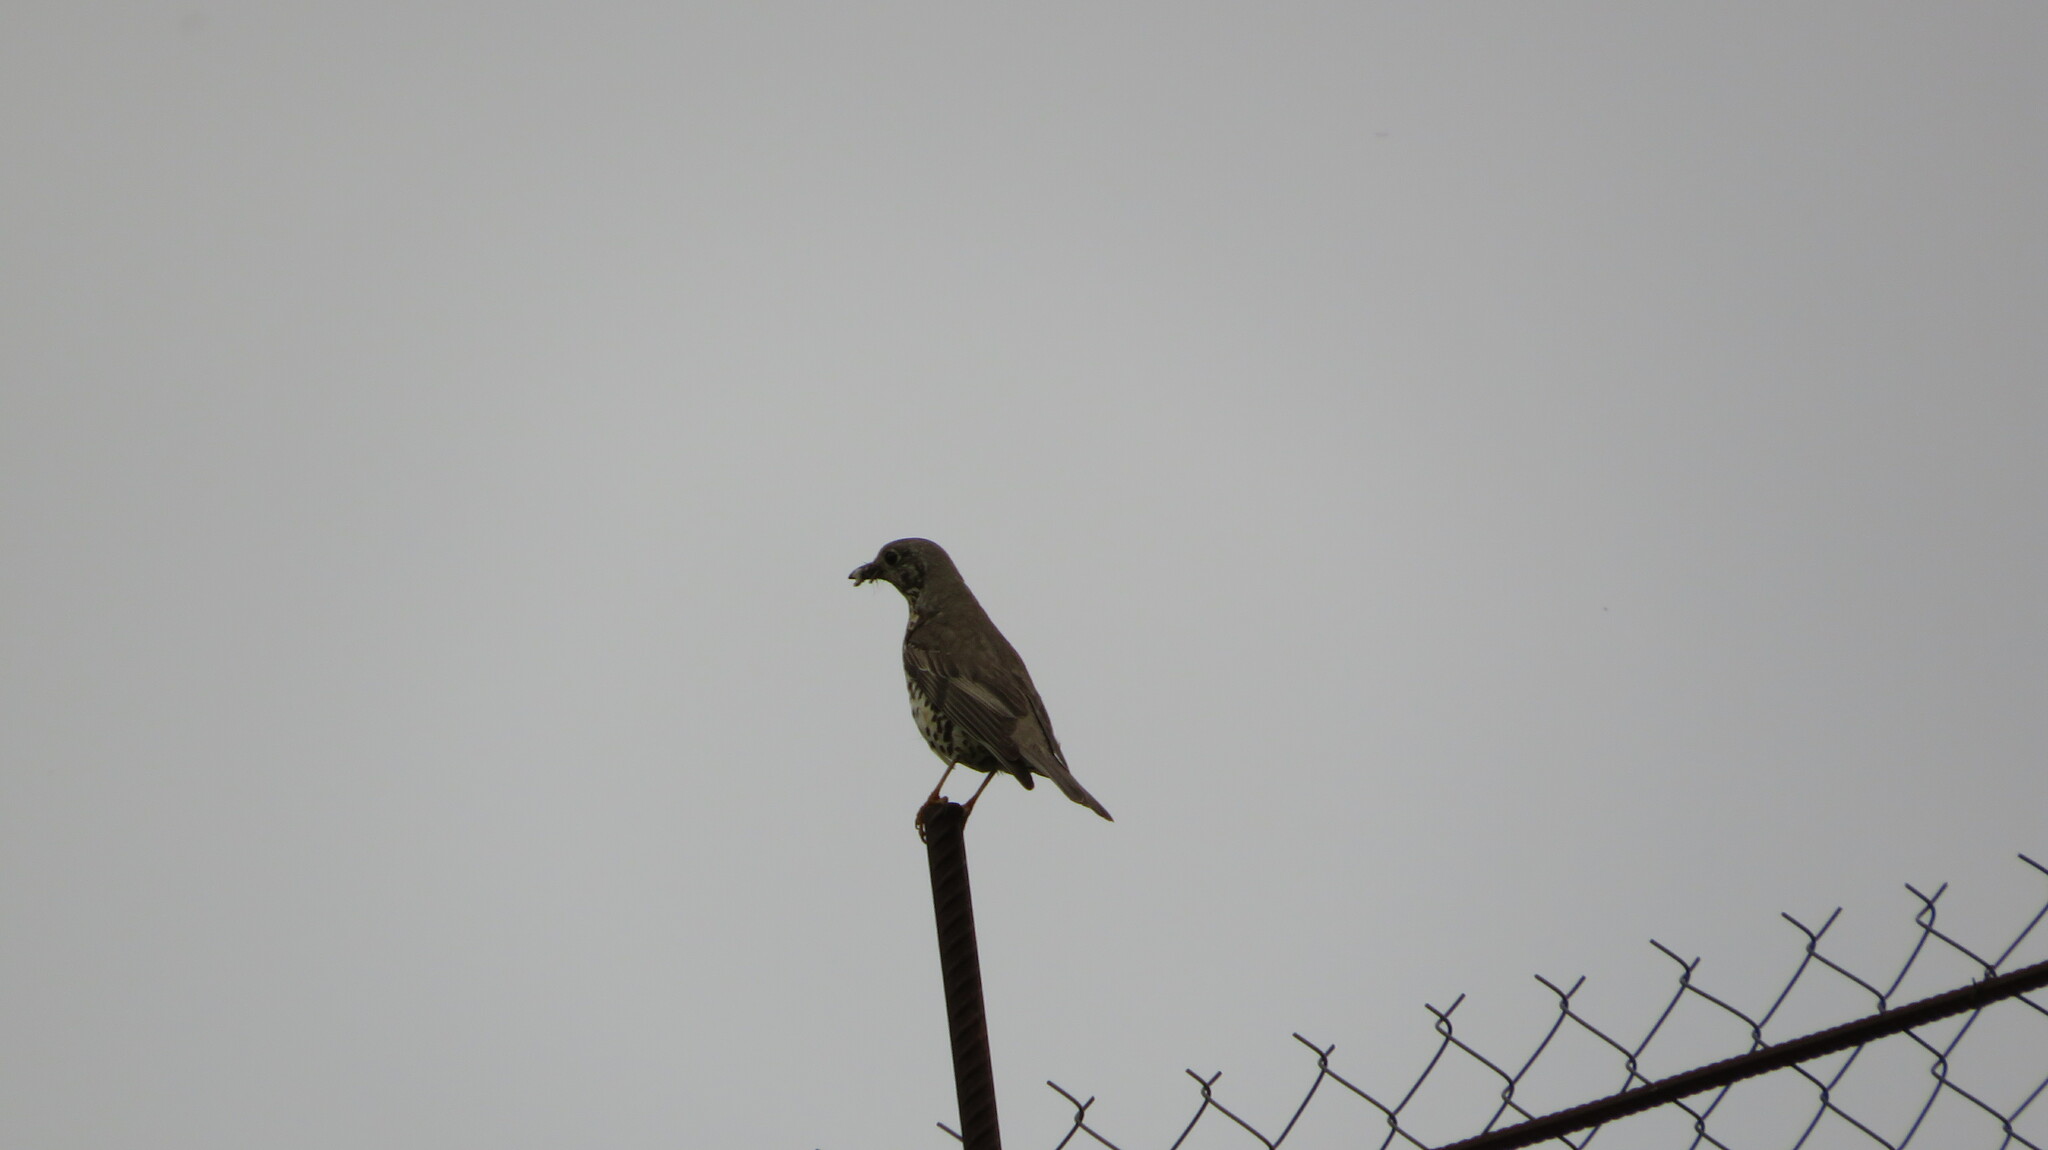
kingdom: Animalia
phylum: Chordata
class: Aves
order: Passeriformes
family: Turdidae
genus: Turdus
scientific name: Turdus viscivorus
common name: Mistle thrush
